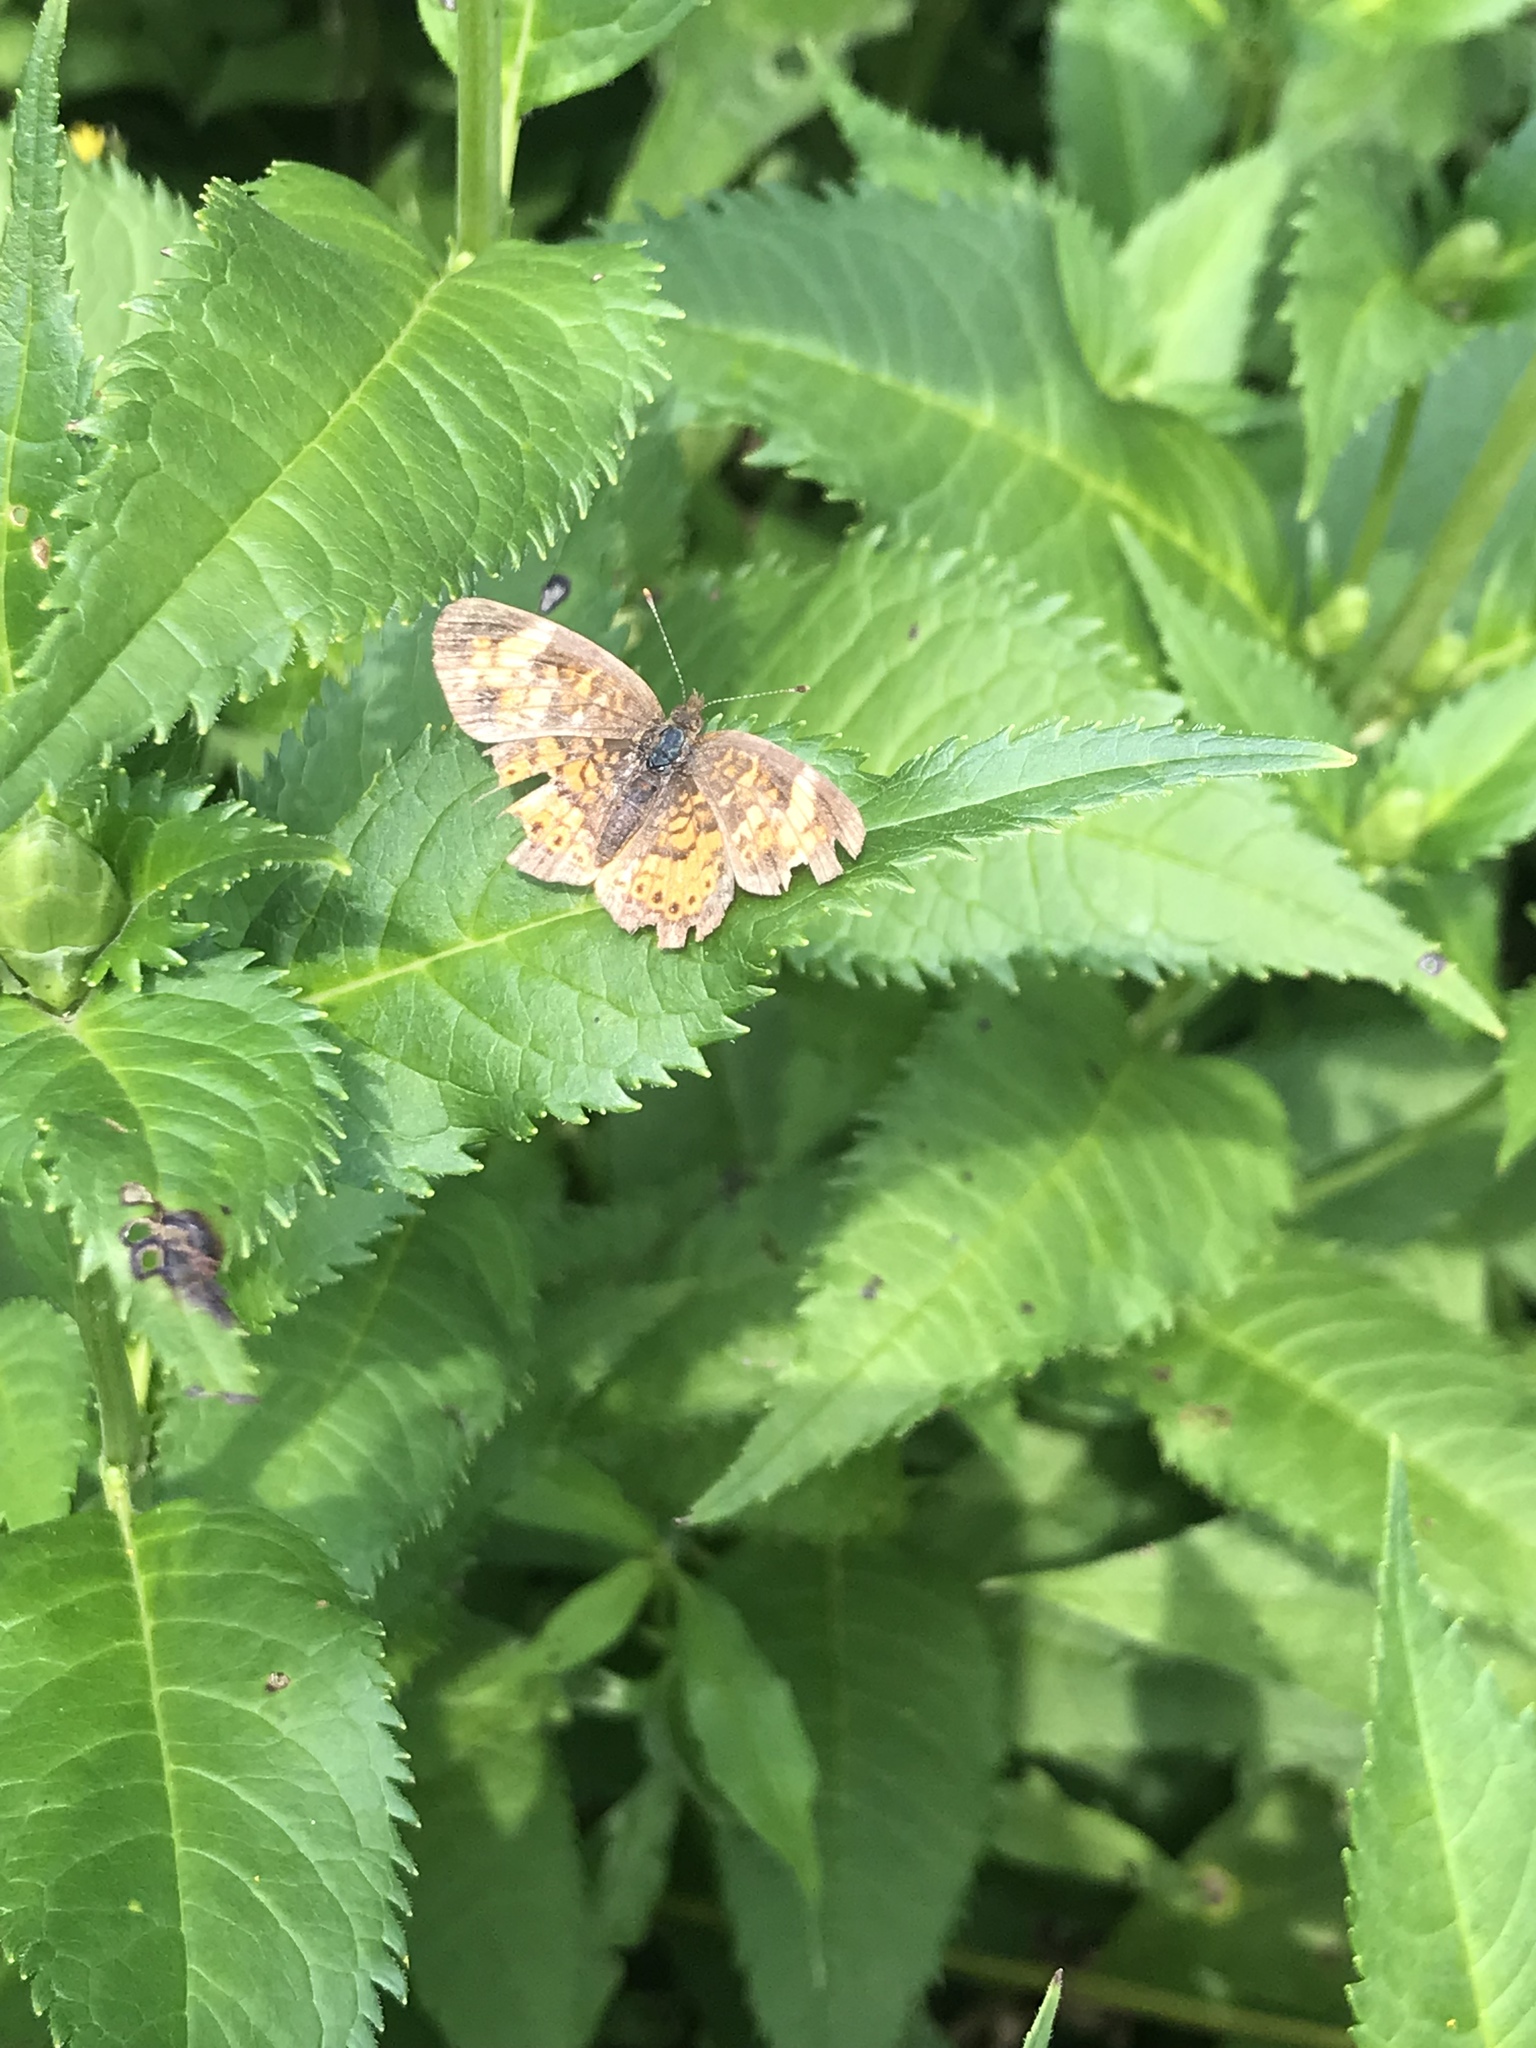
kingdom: Animalia
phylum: Arthropoda
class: Insecta
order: Lepidoptera
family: Nymphalidae
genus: Phyciodes
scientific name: Phyciodes tharos
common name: Pearl crescent
